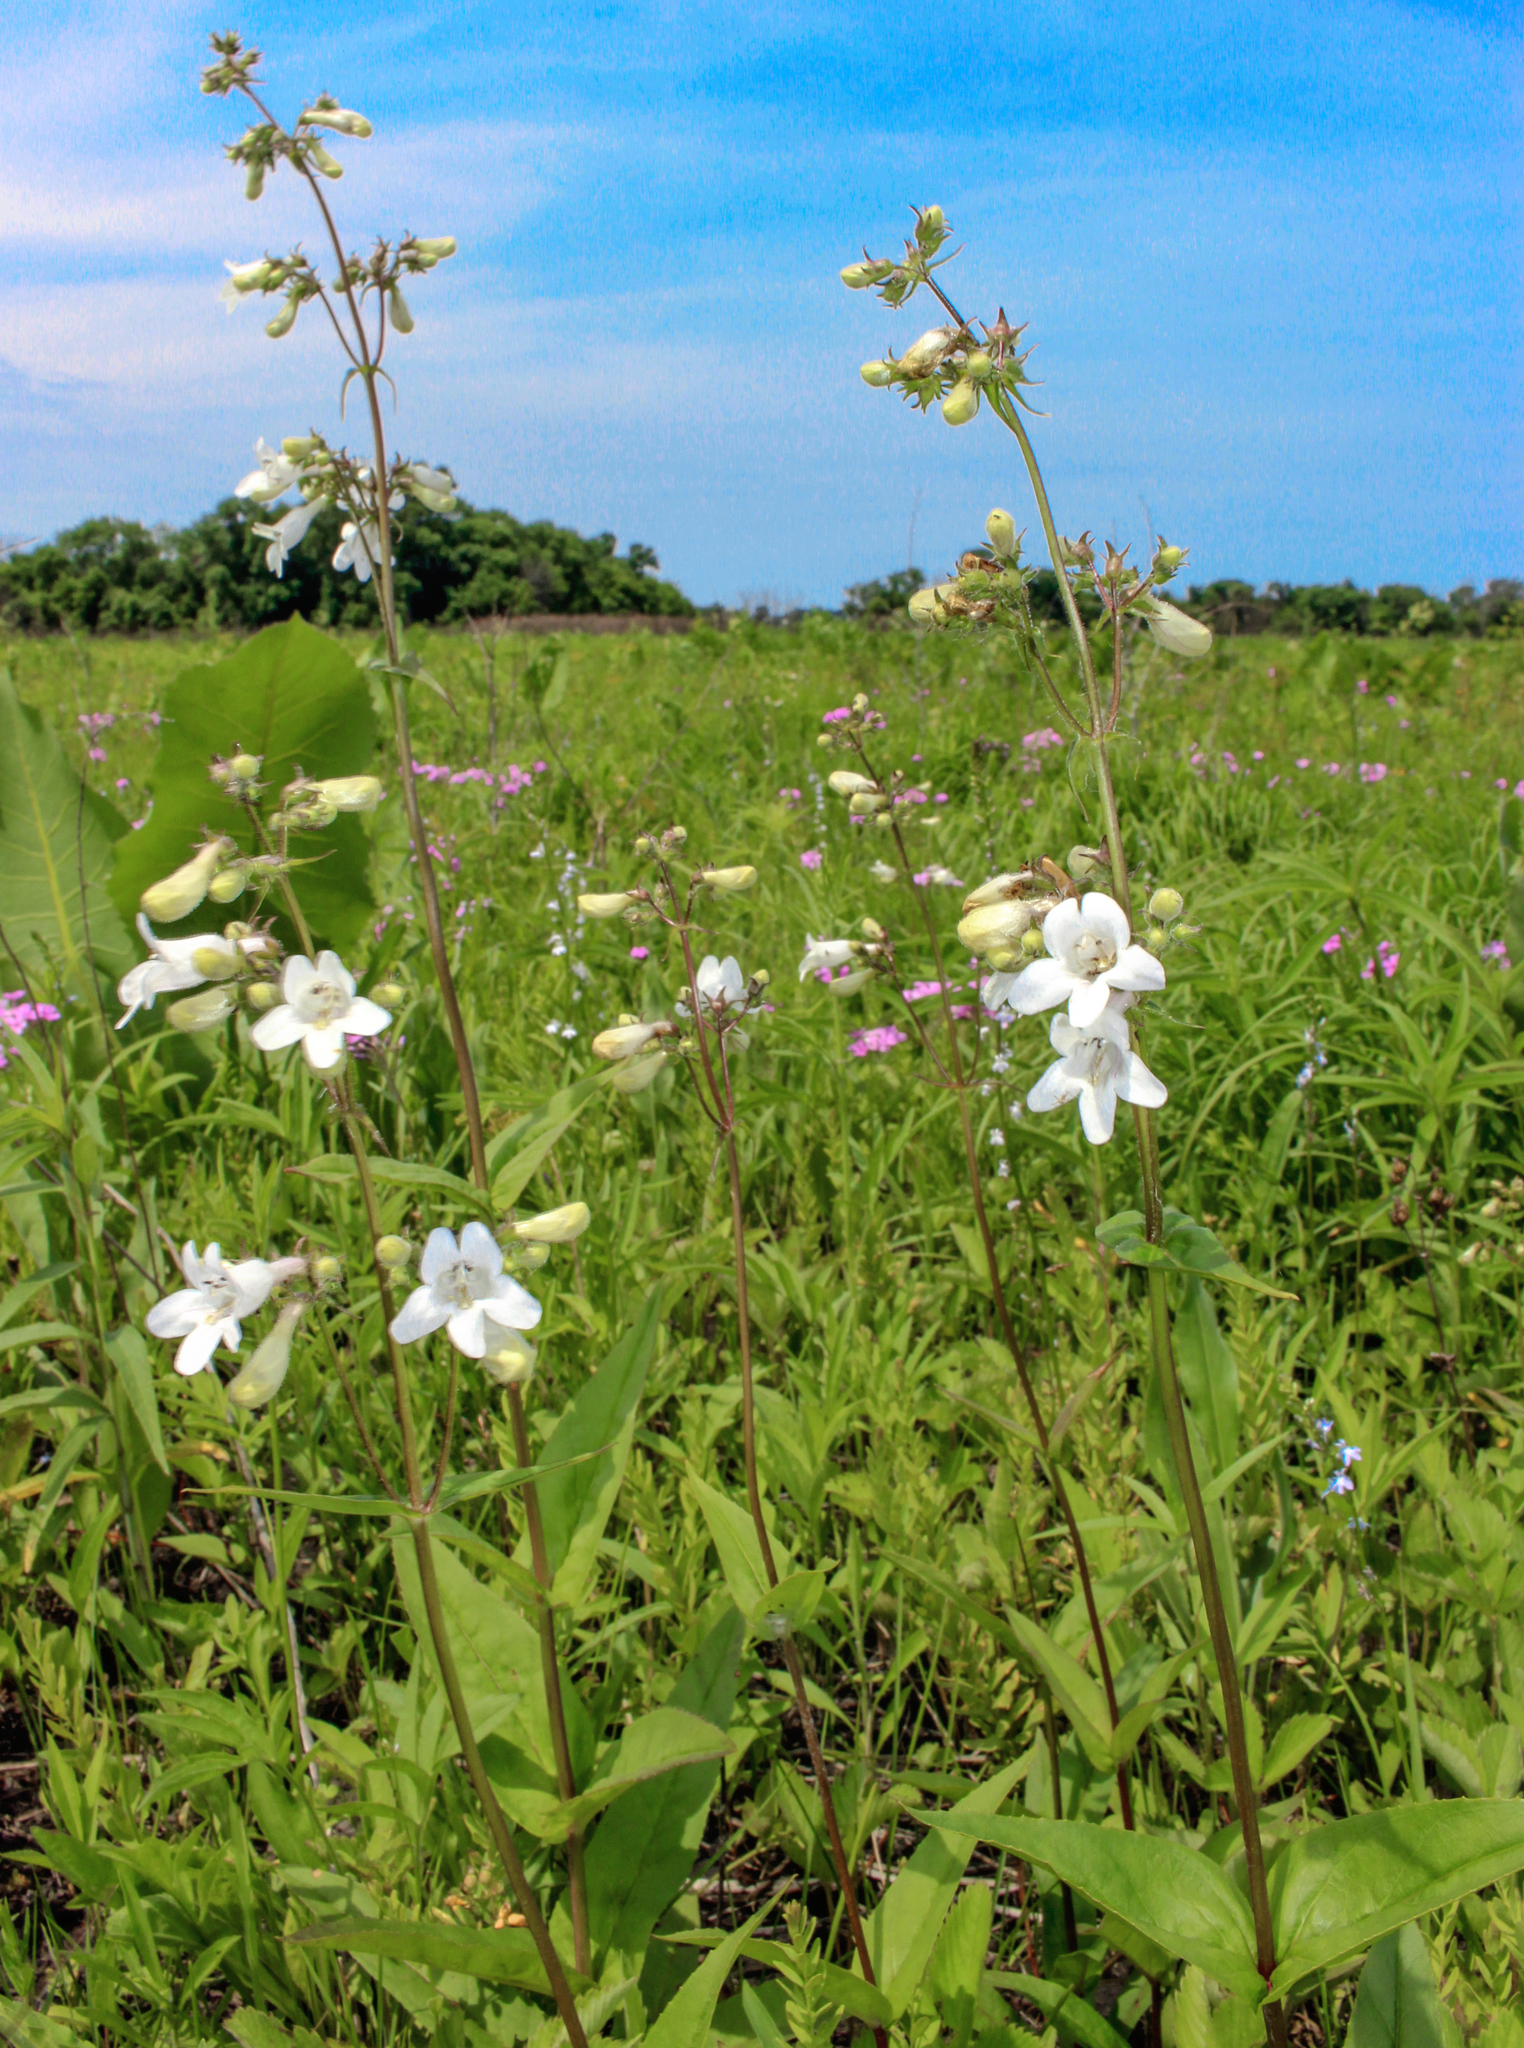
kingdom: Plantae
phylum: Tracheophyta
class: Magnoliopsida
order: Lamiales
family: Plantaginaceae
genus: Penstemon
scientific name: Penstemon digitalis
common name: Foxglove beardtongue
